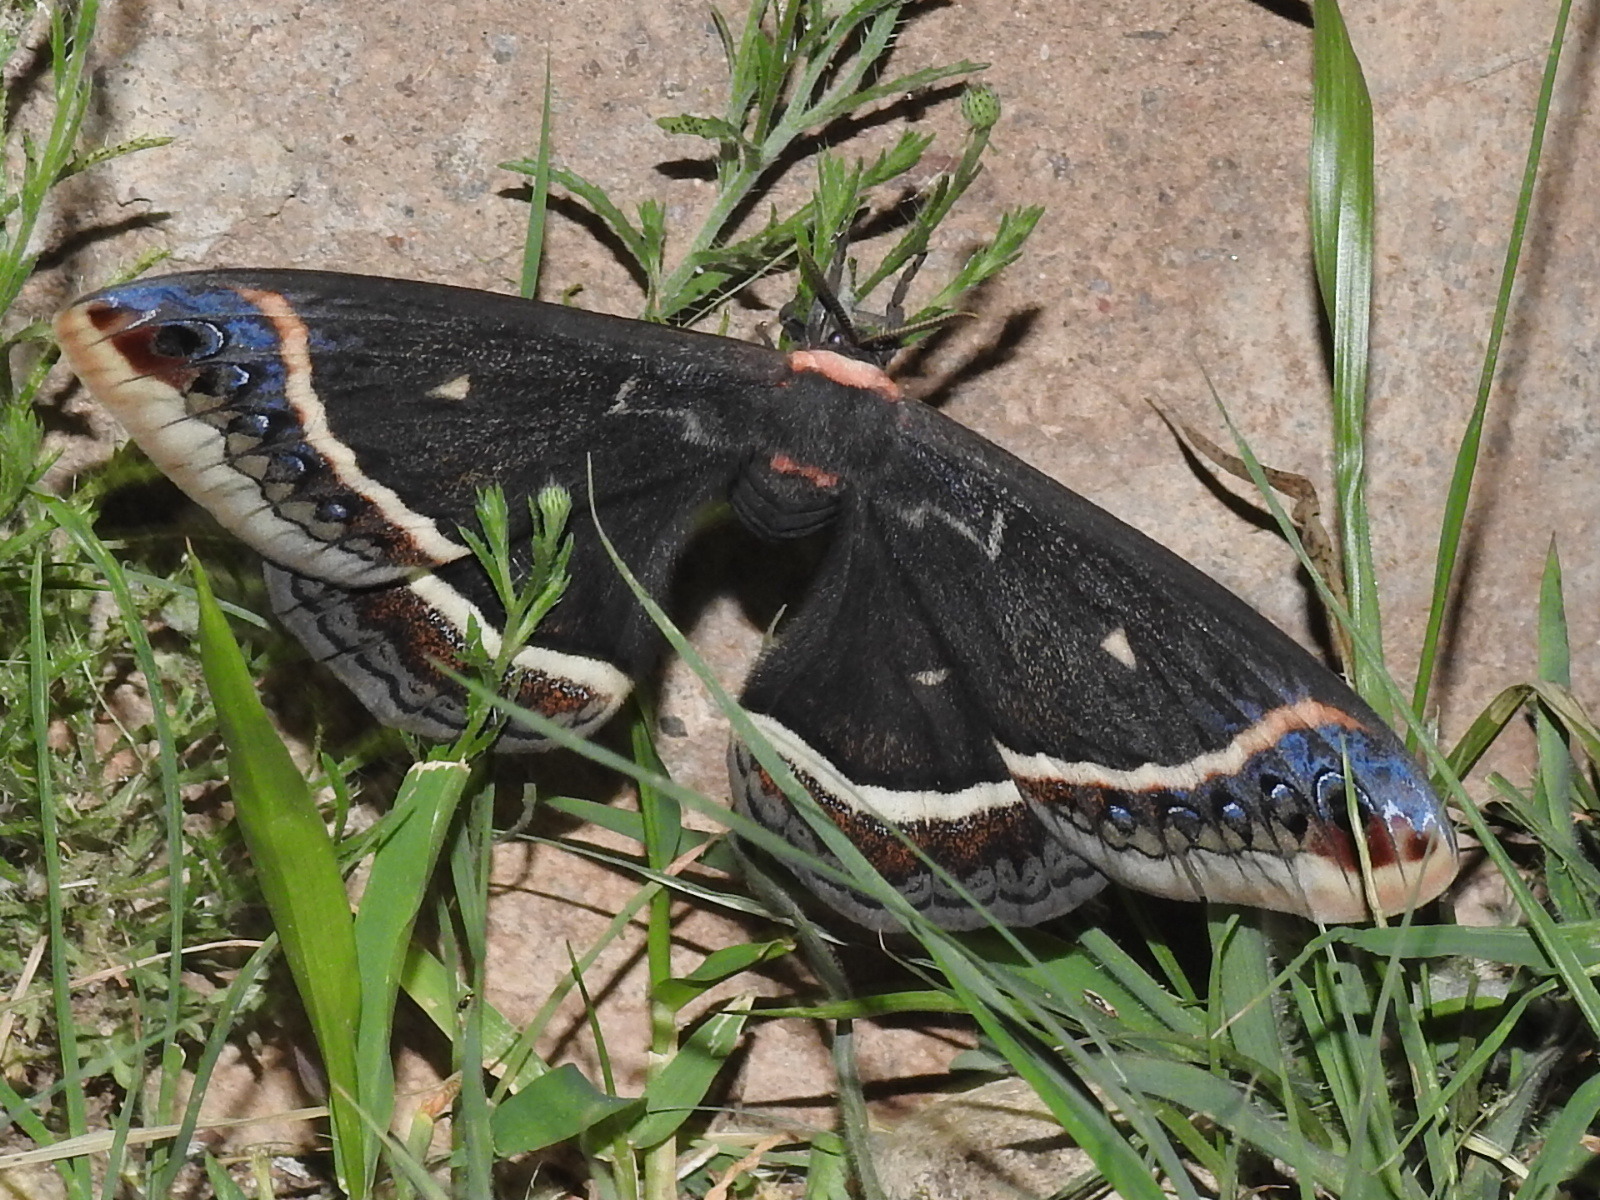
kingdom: Animalia
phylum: Arthropoda
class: Insecta
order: Lepidoptera
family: Saturniidae
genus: Eupackardia
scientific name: Eupackardia calleta
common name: Calleta silkmoth
